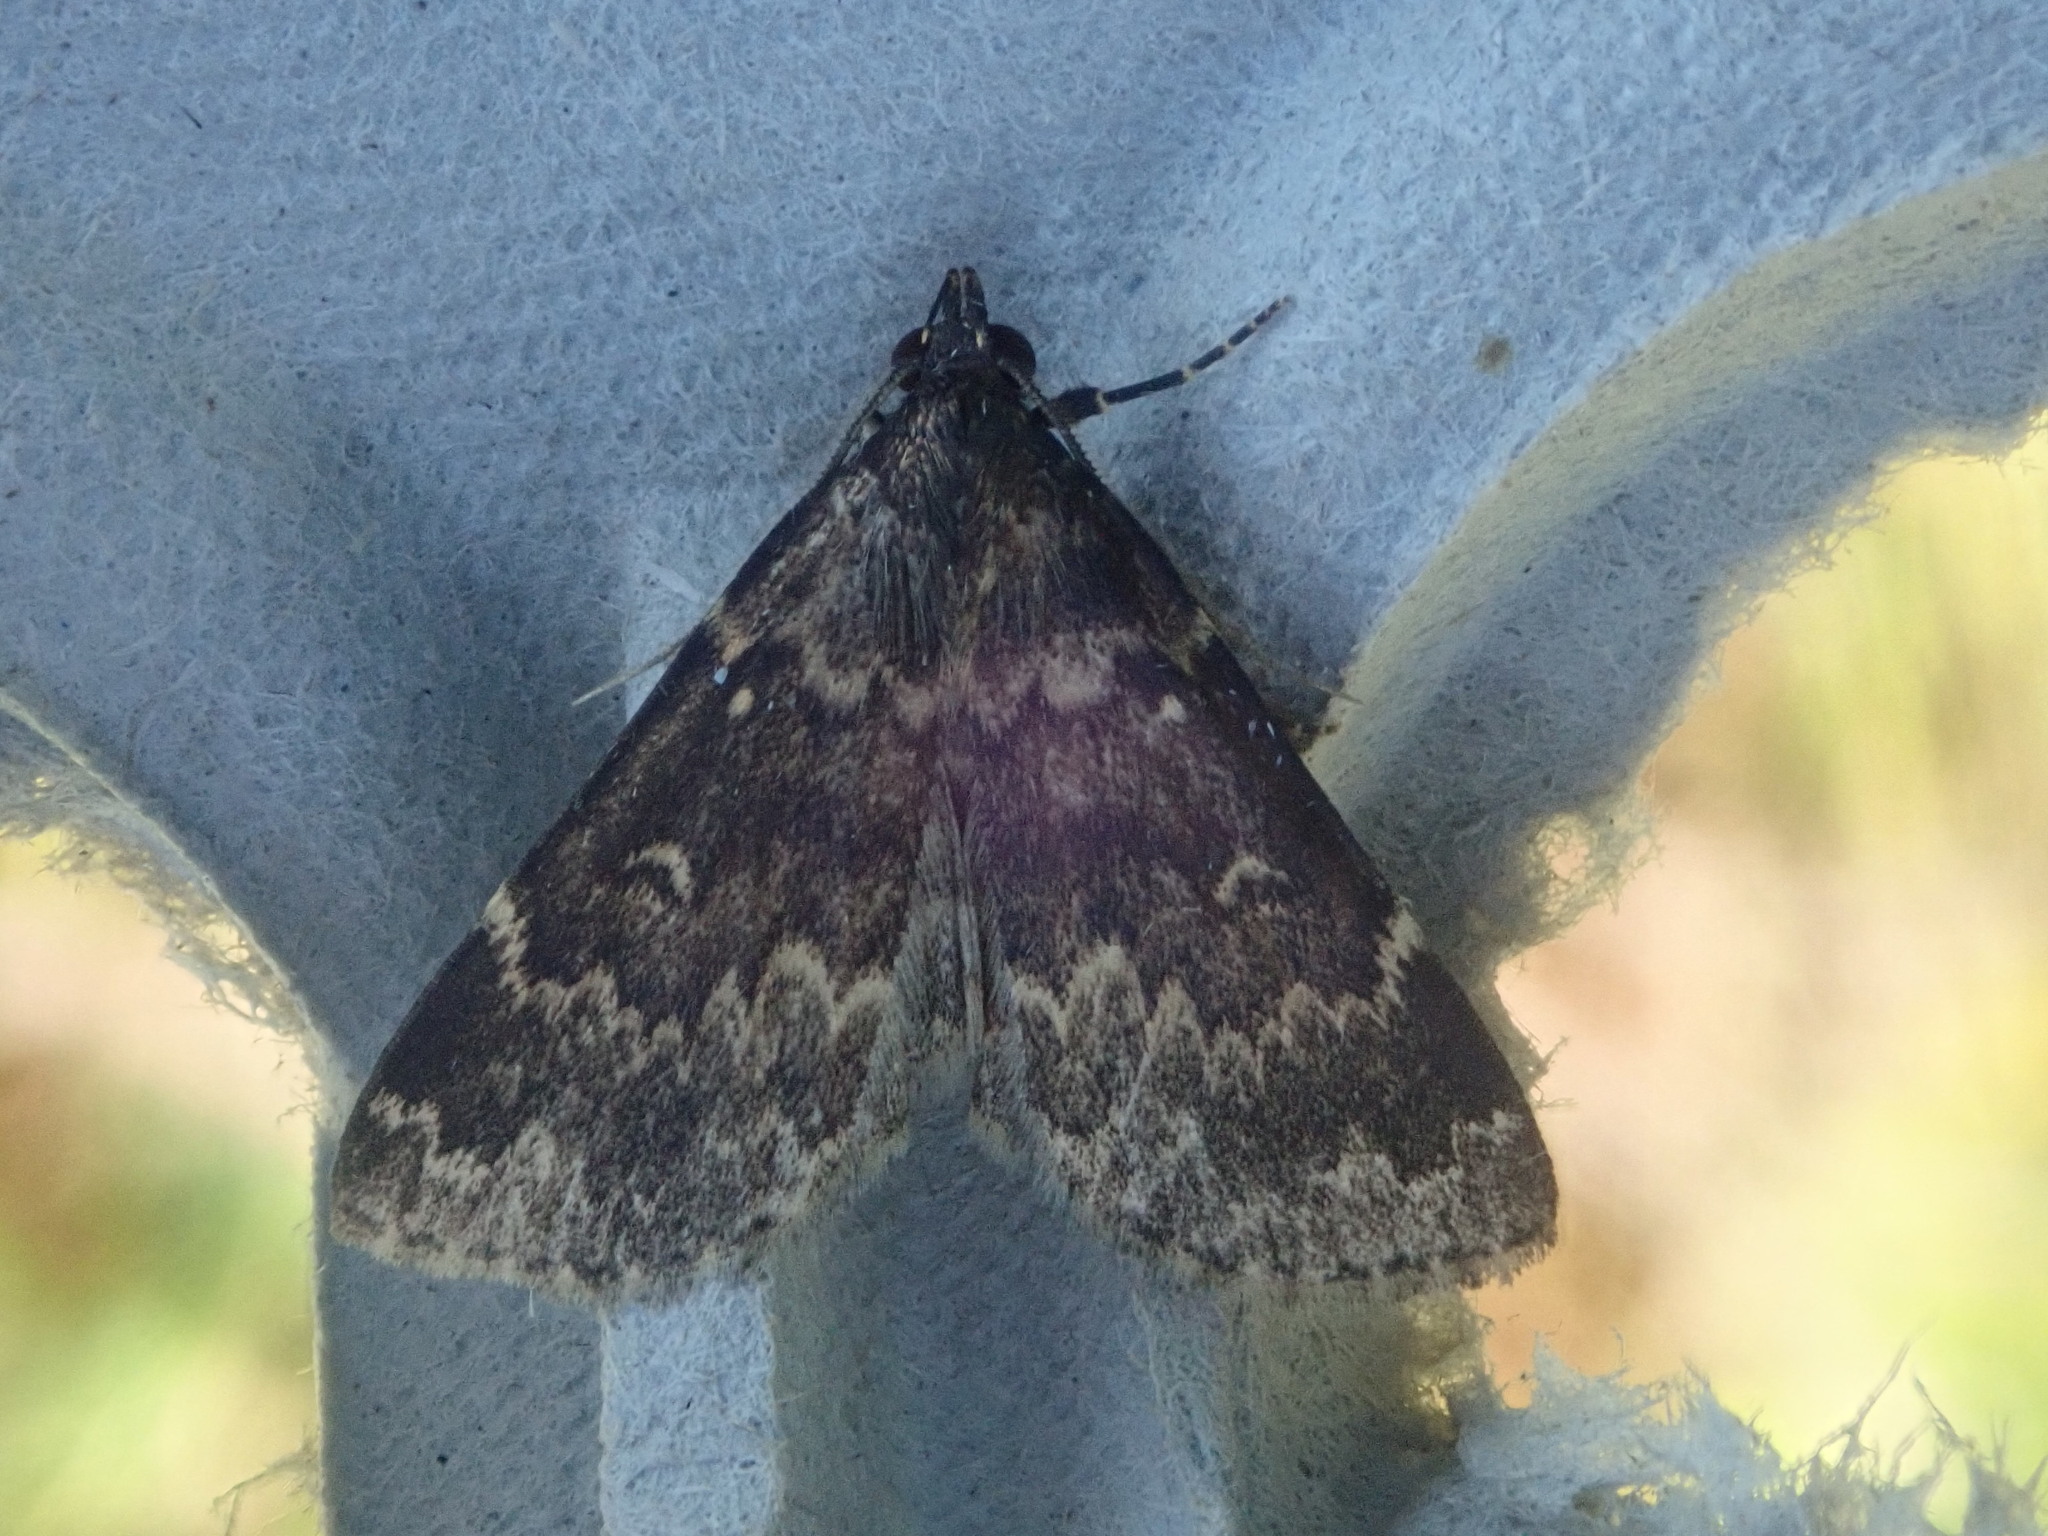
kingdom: Animalia
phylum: Arthropoda
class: Insecta
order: Lepidoptera
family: Erebidae
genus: Idia
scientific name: Idia lubricalis
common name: Twin-striped tabby
